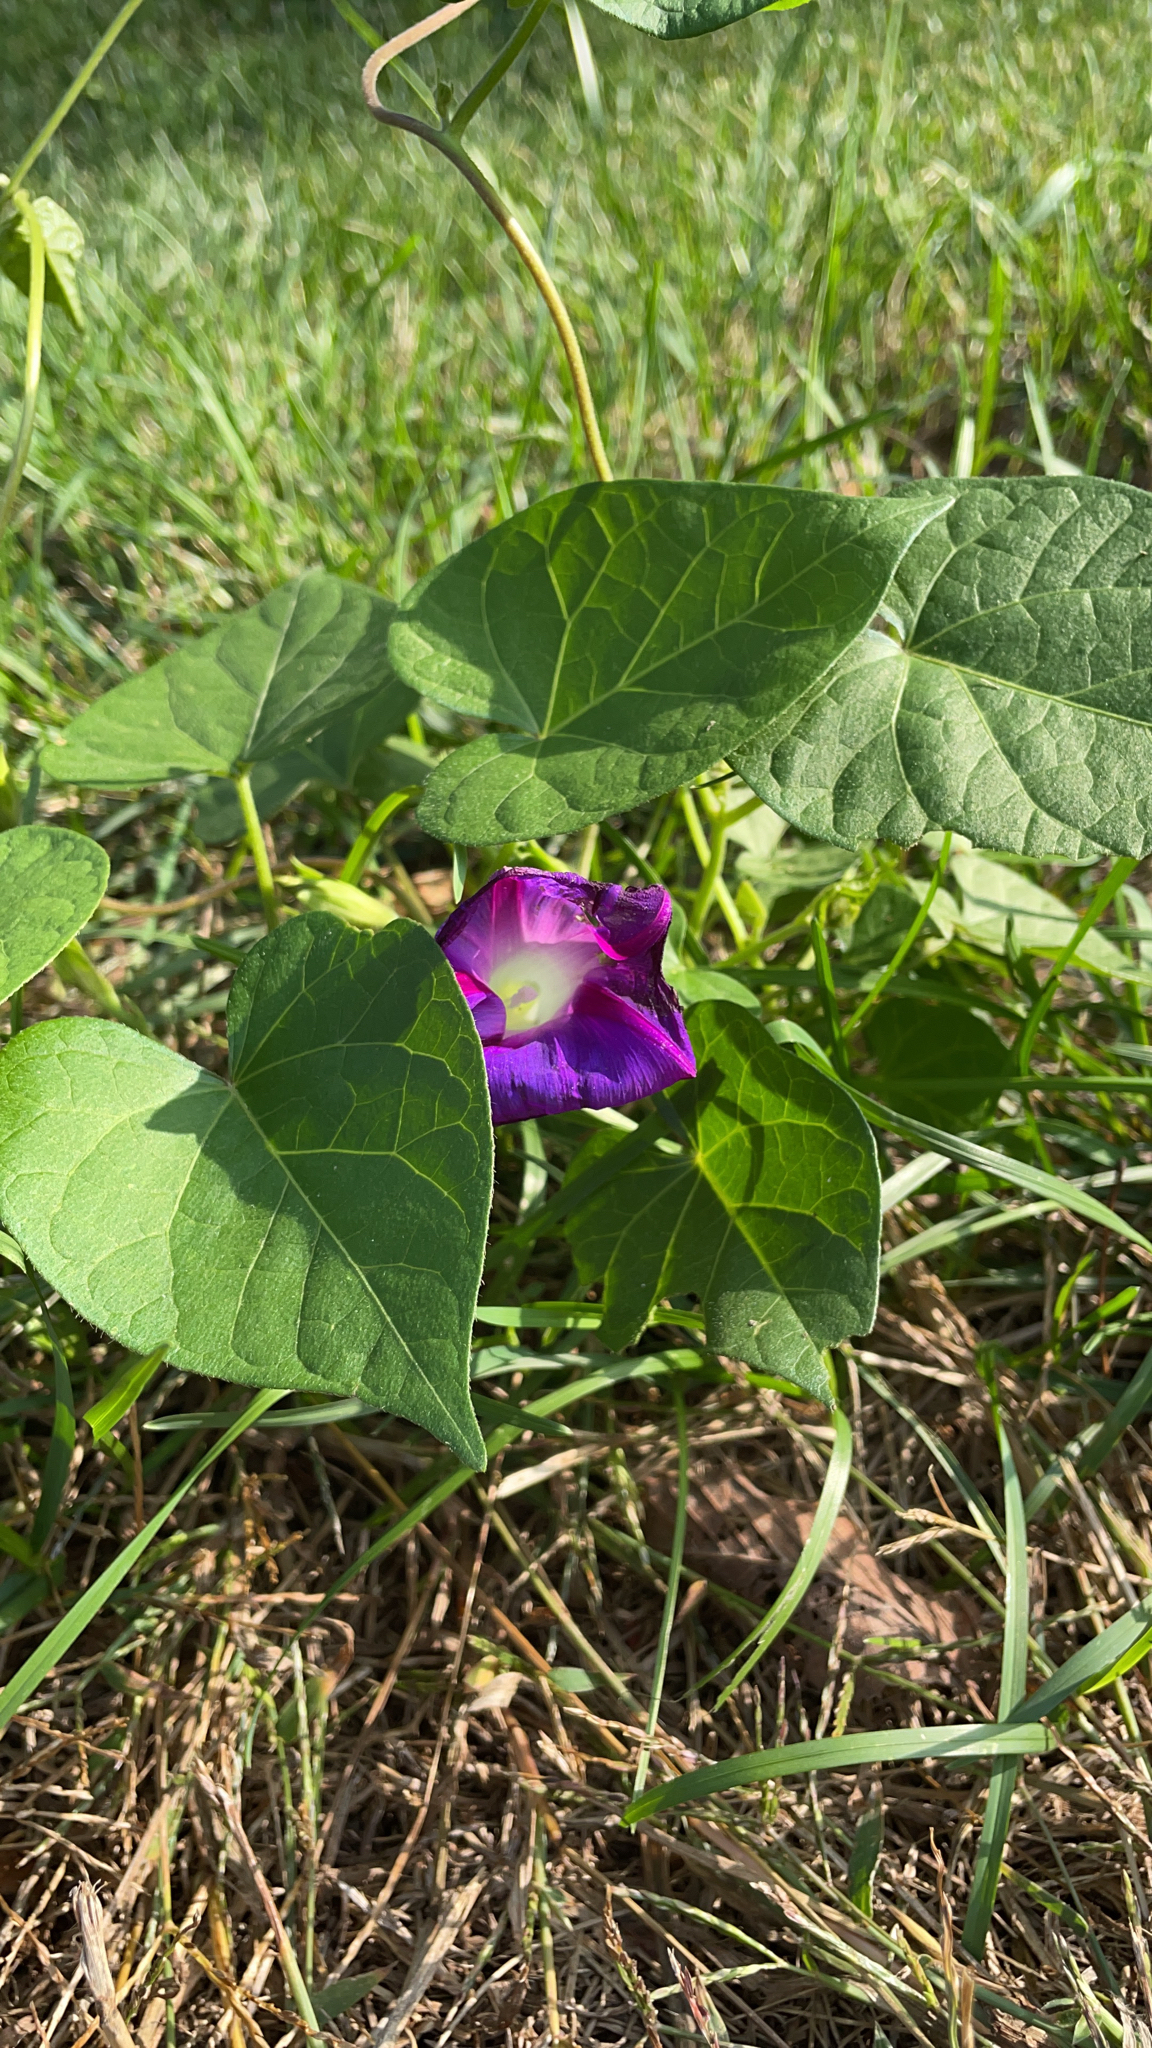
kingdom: Plantae
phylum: Tracheophyta
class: Magnoliopsida
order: Solanales
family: Convolvulaceae
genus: Ipomoea
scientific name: Ipomoea purpurea
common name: Common morning-glory
